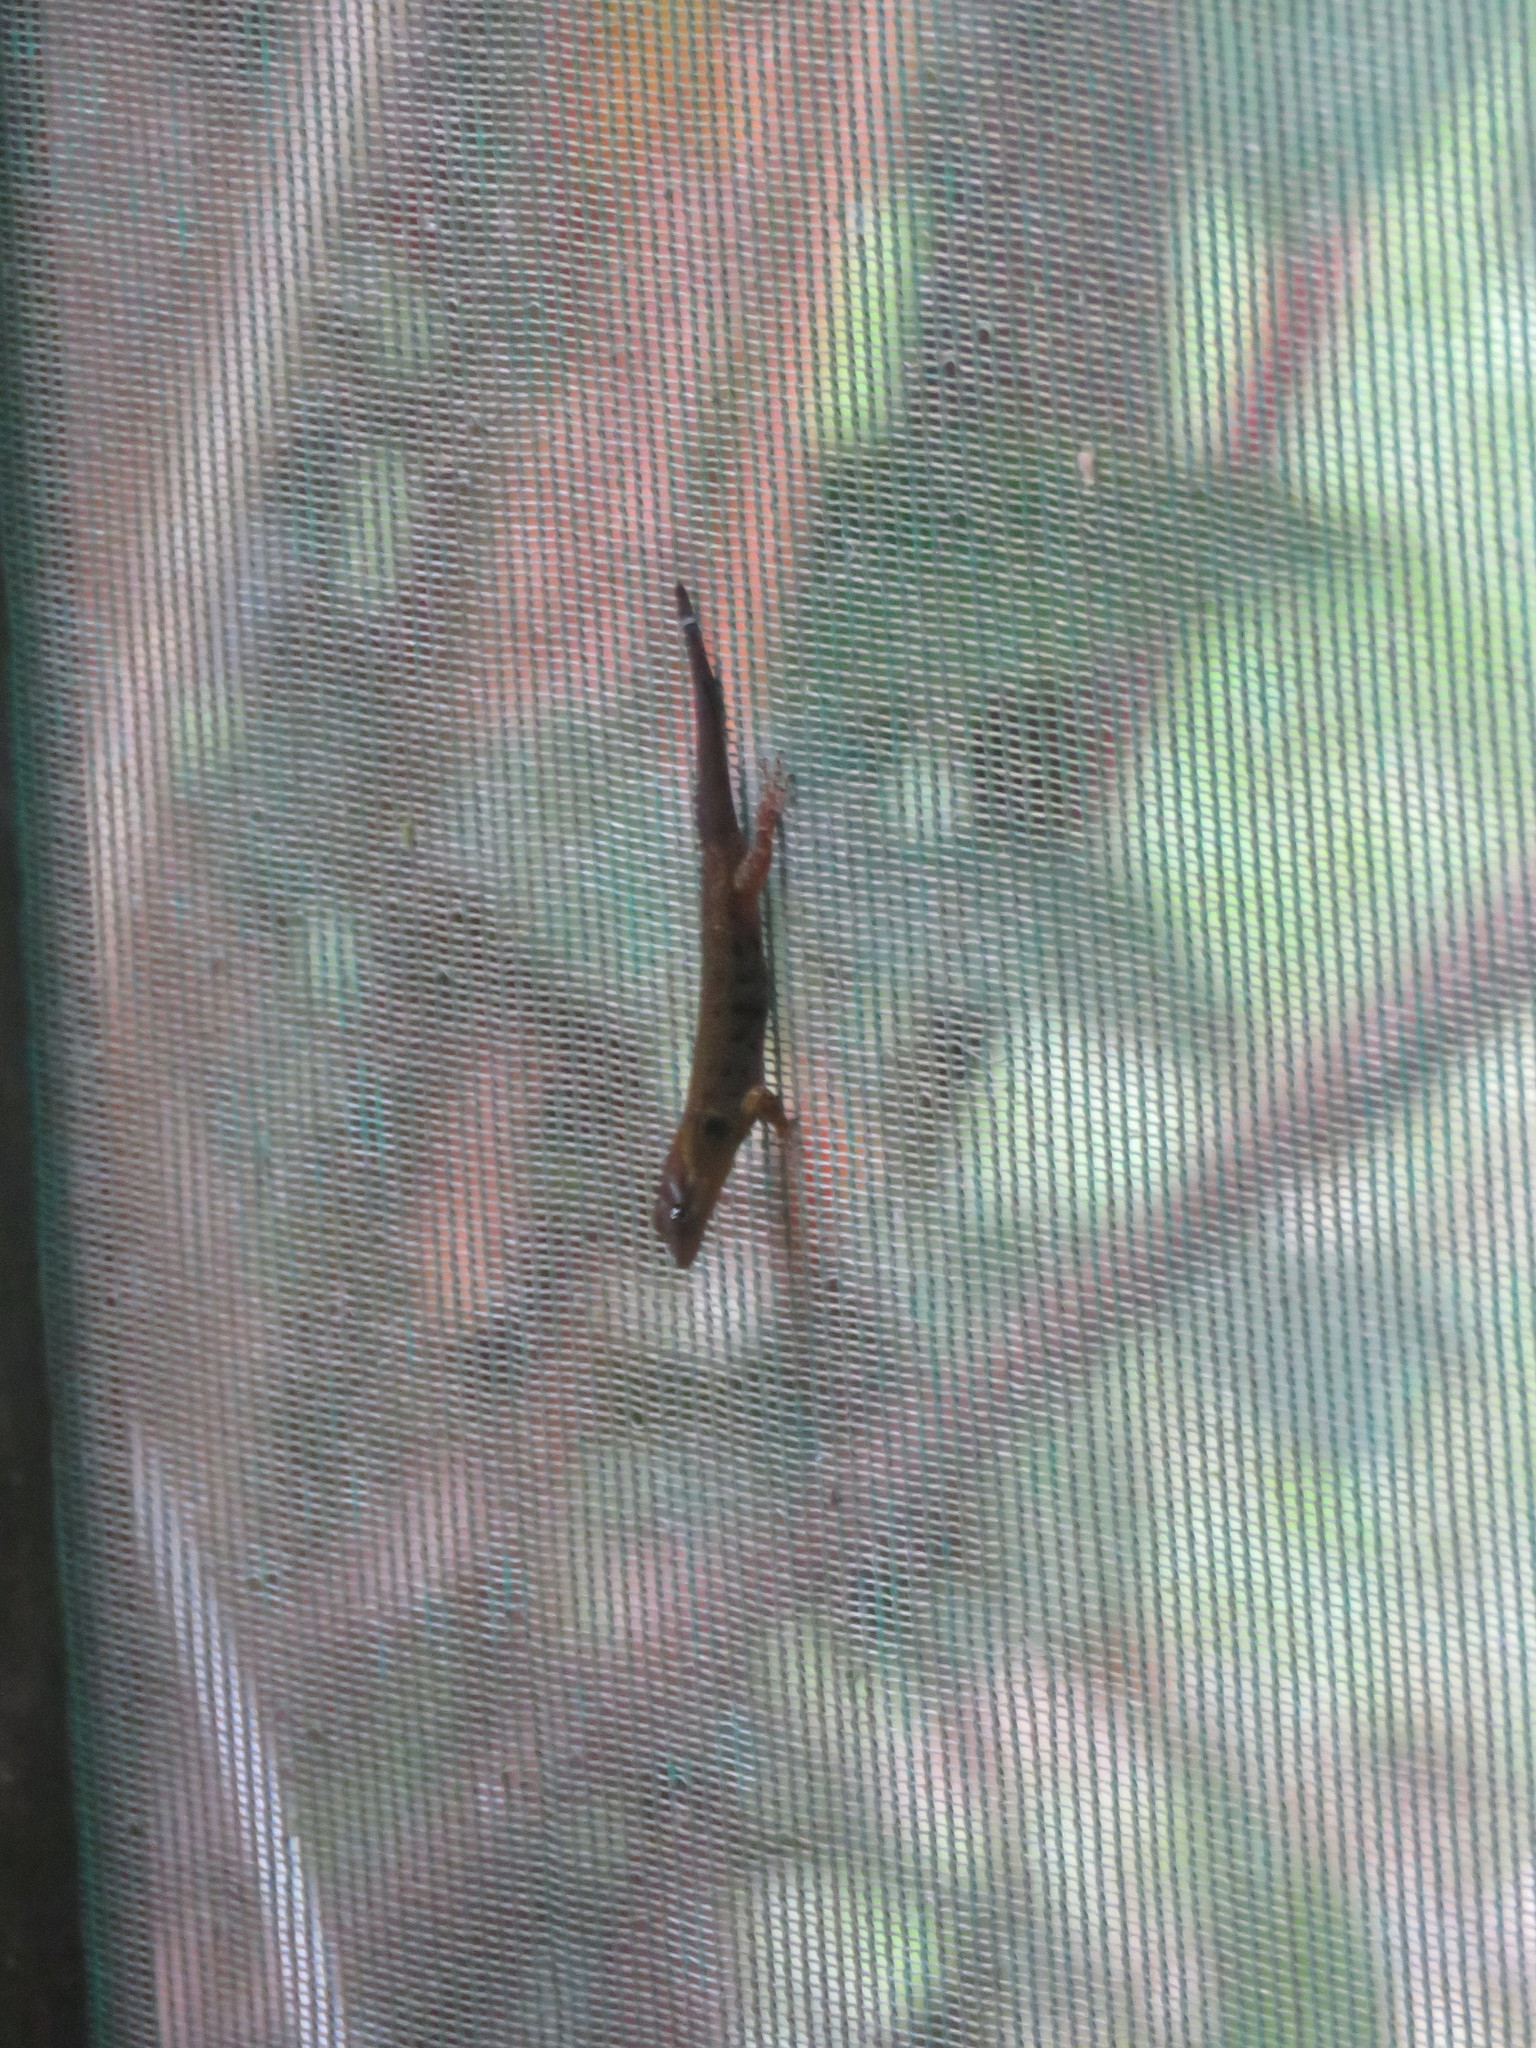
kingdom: Animalia
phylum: Chordata
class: Squamata
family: Sphaerodactylidae
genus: Gonatodes
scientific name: Gonatodes humeralis
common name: South american clawed gecko
